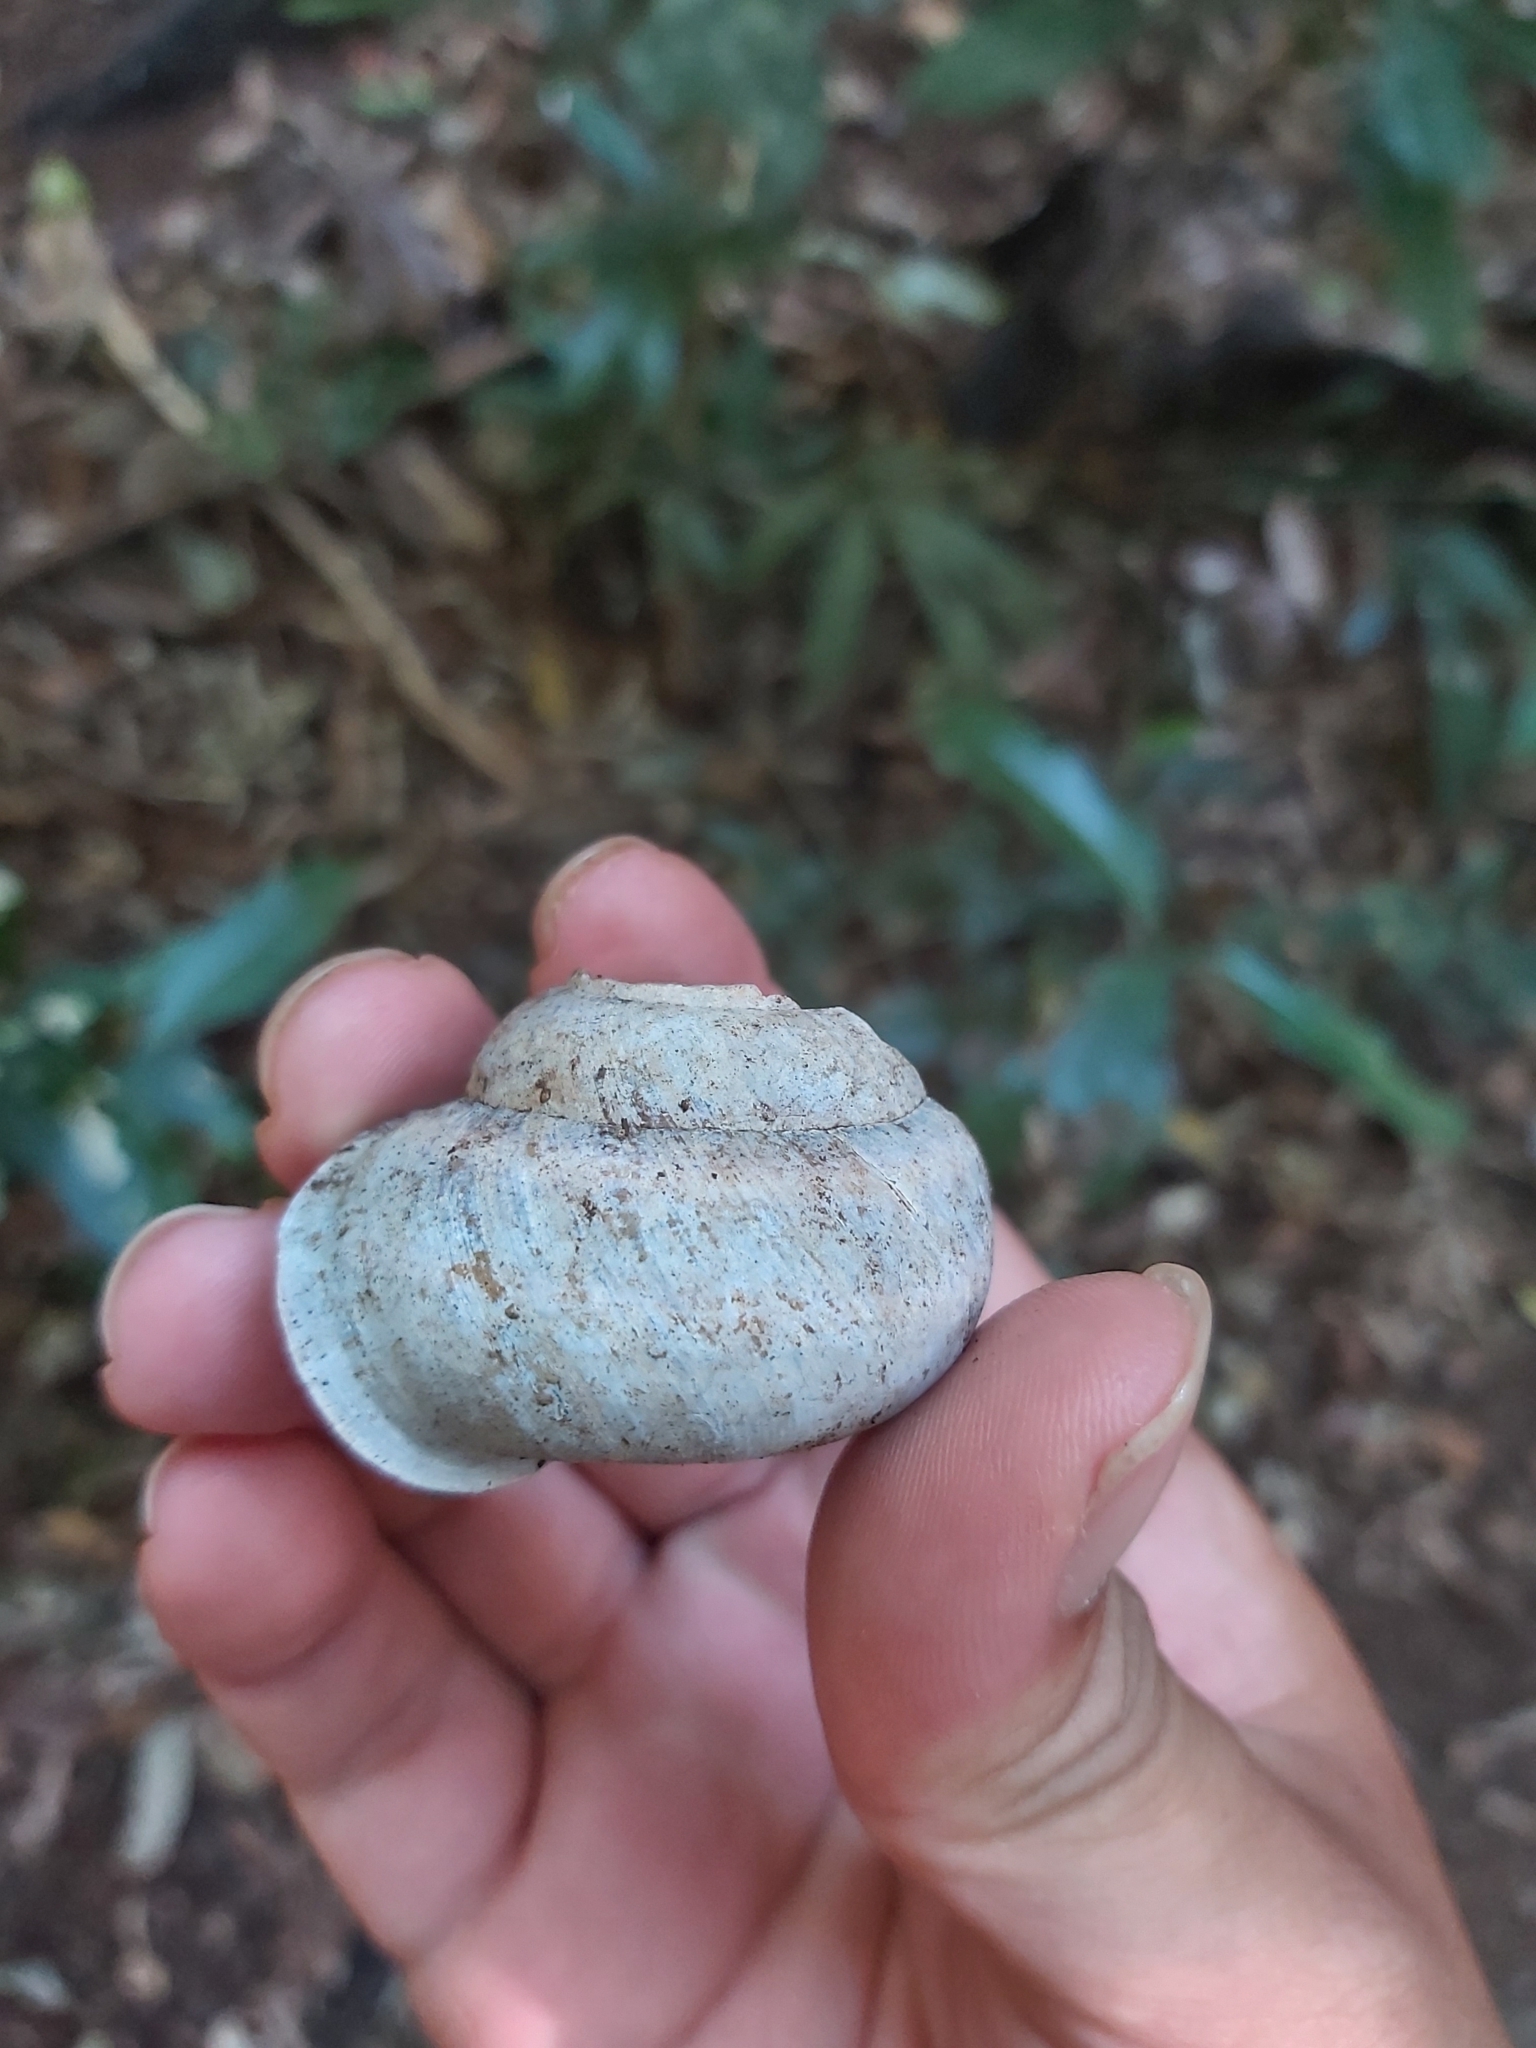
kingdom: Animalia
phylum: Mollusca
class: Gastropoda
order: Stylommatophora
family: Camaenidae
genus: Gnarosophia
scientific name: Gnarosophia bellendenkerensis
